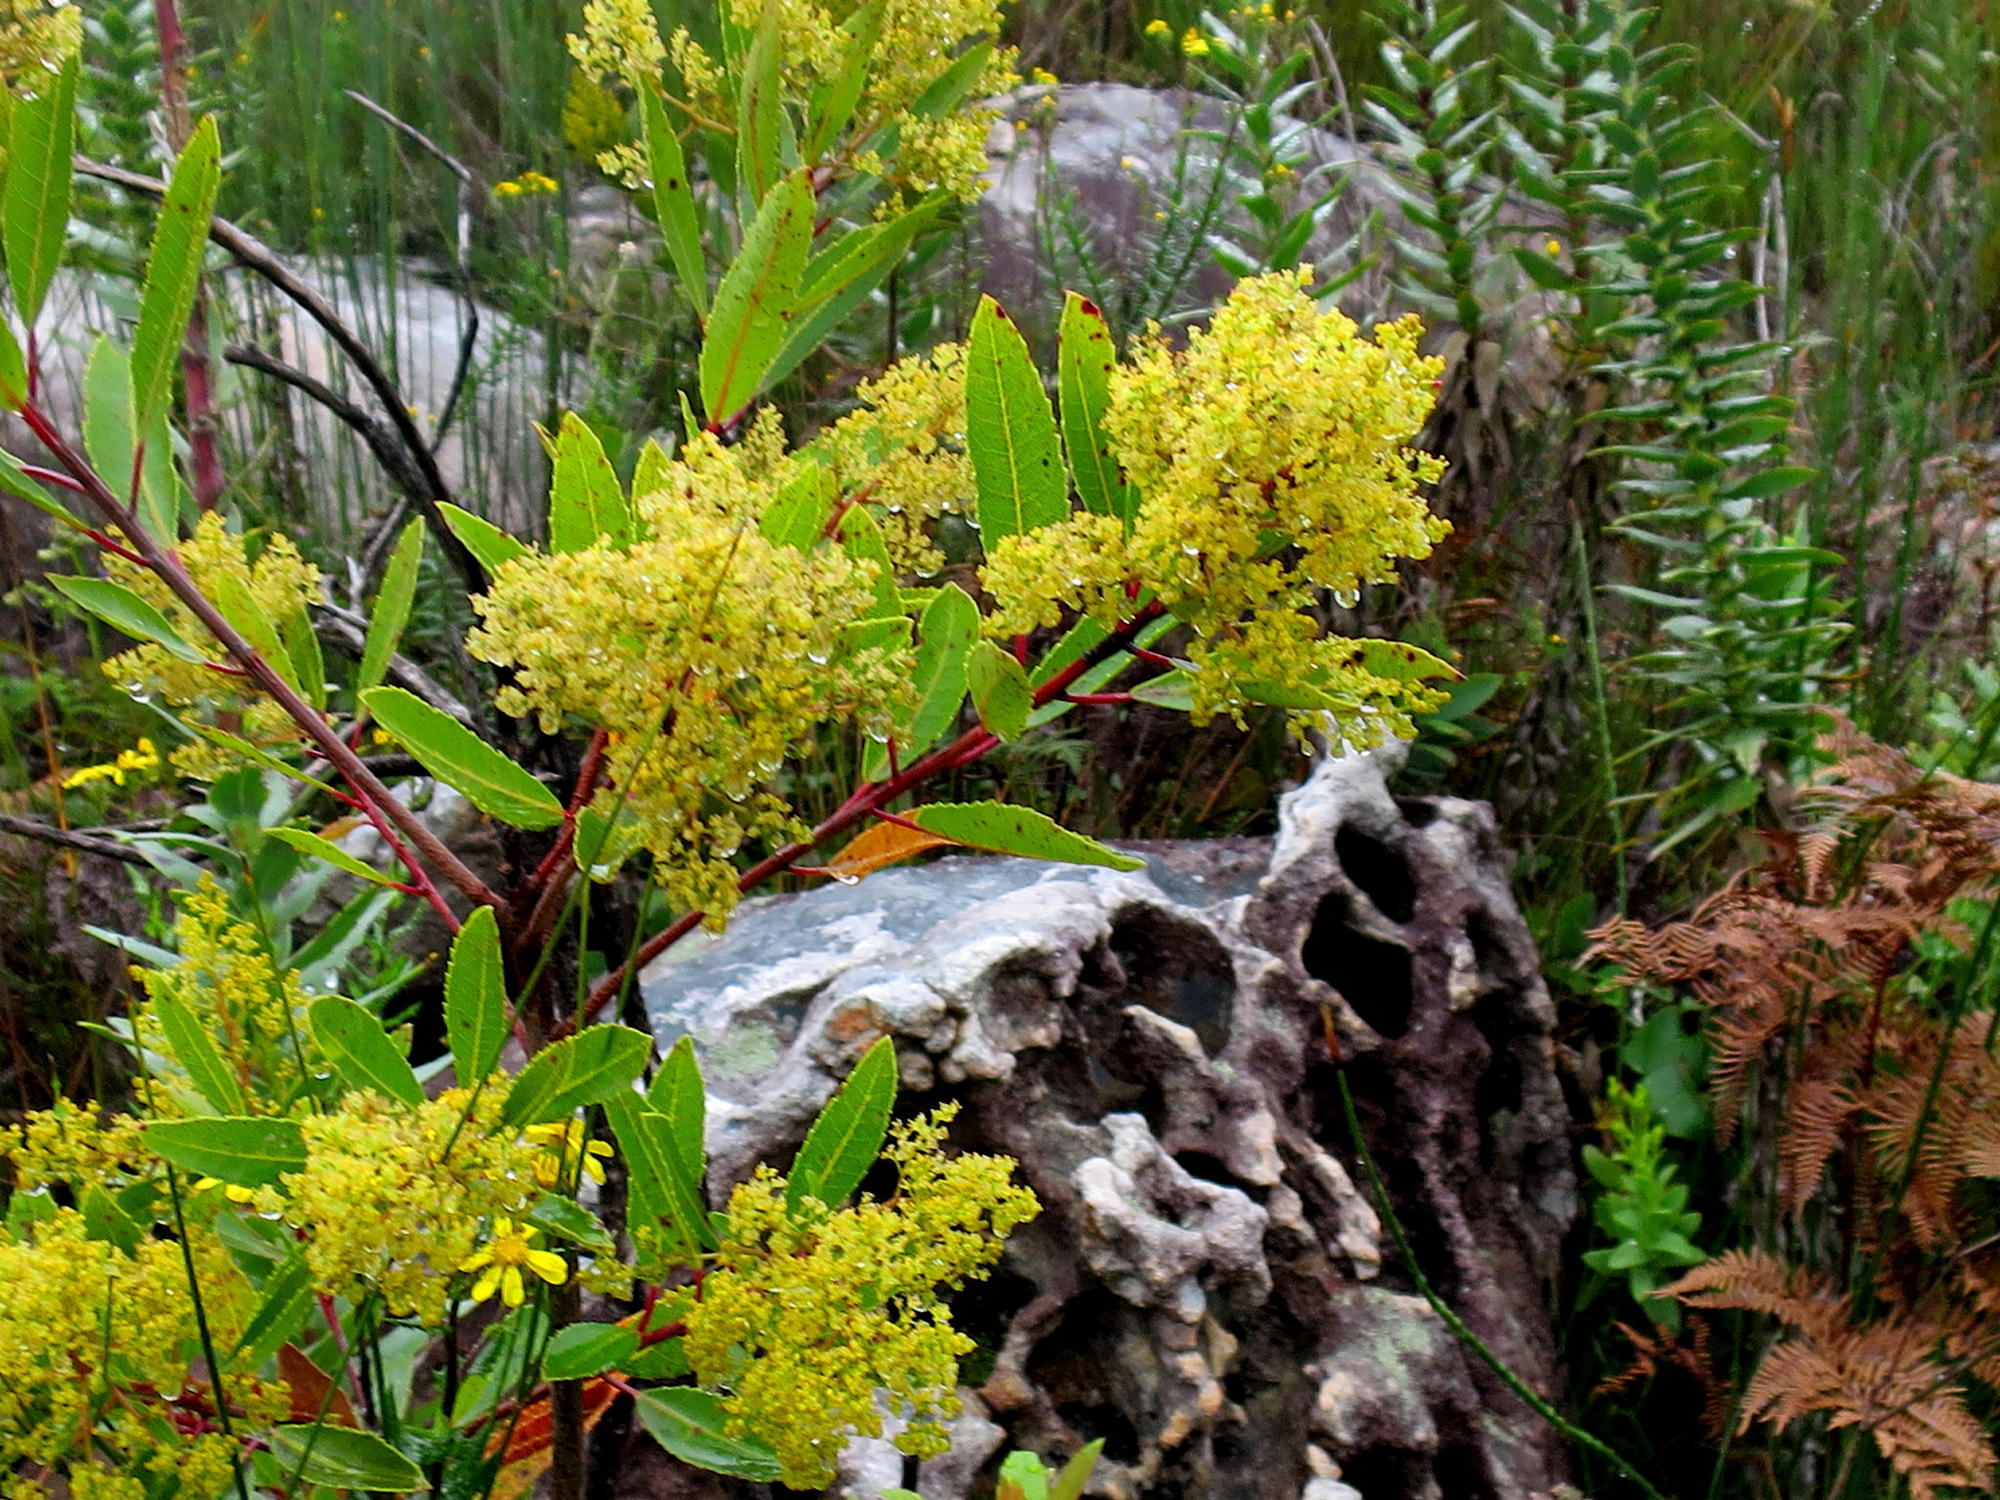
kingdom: Plantae
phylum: Tracheophyta
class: Magnoliopsida
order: Sapindales
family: Anacardiaceae
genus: Laurophyllus
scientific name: Laurophyllus capensis
